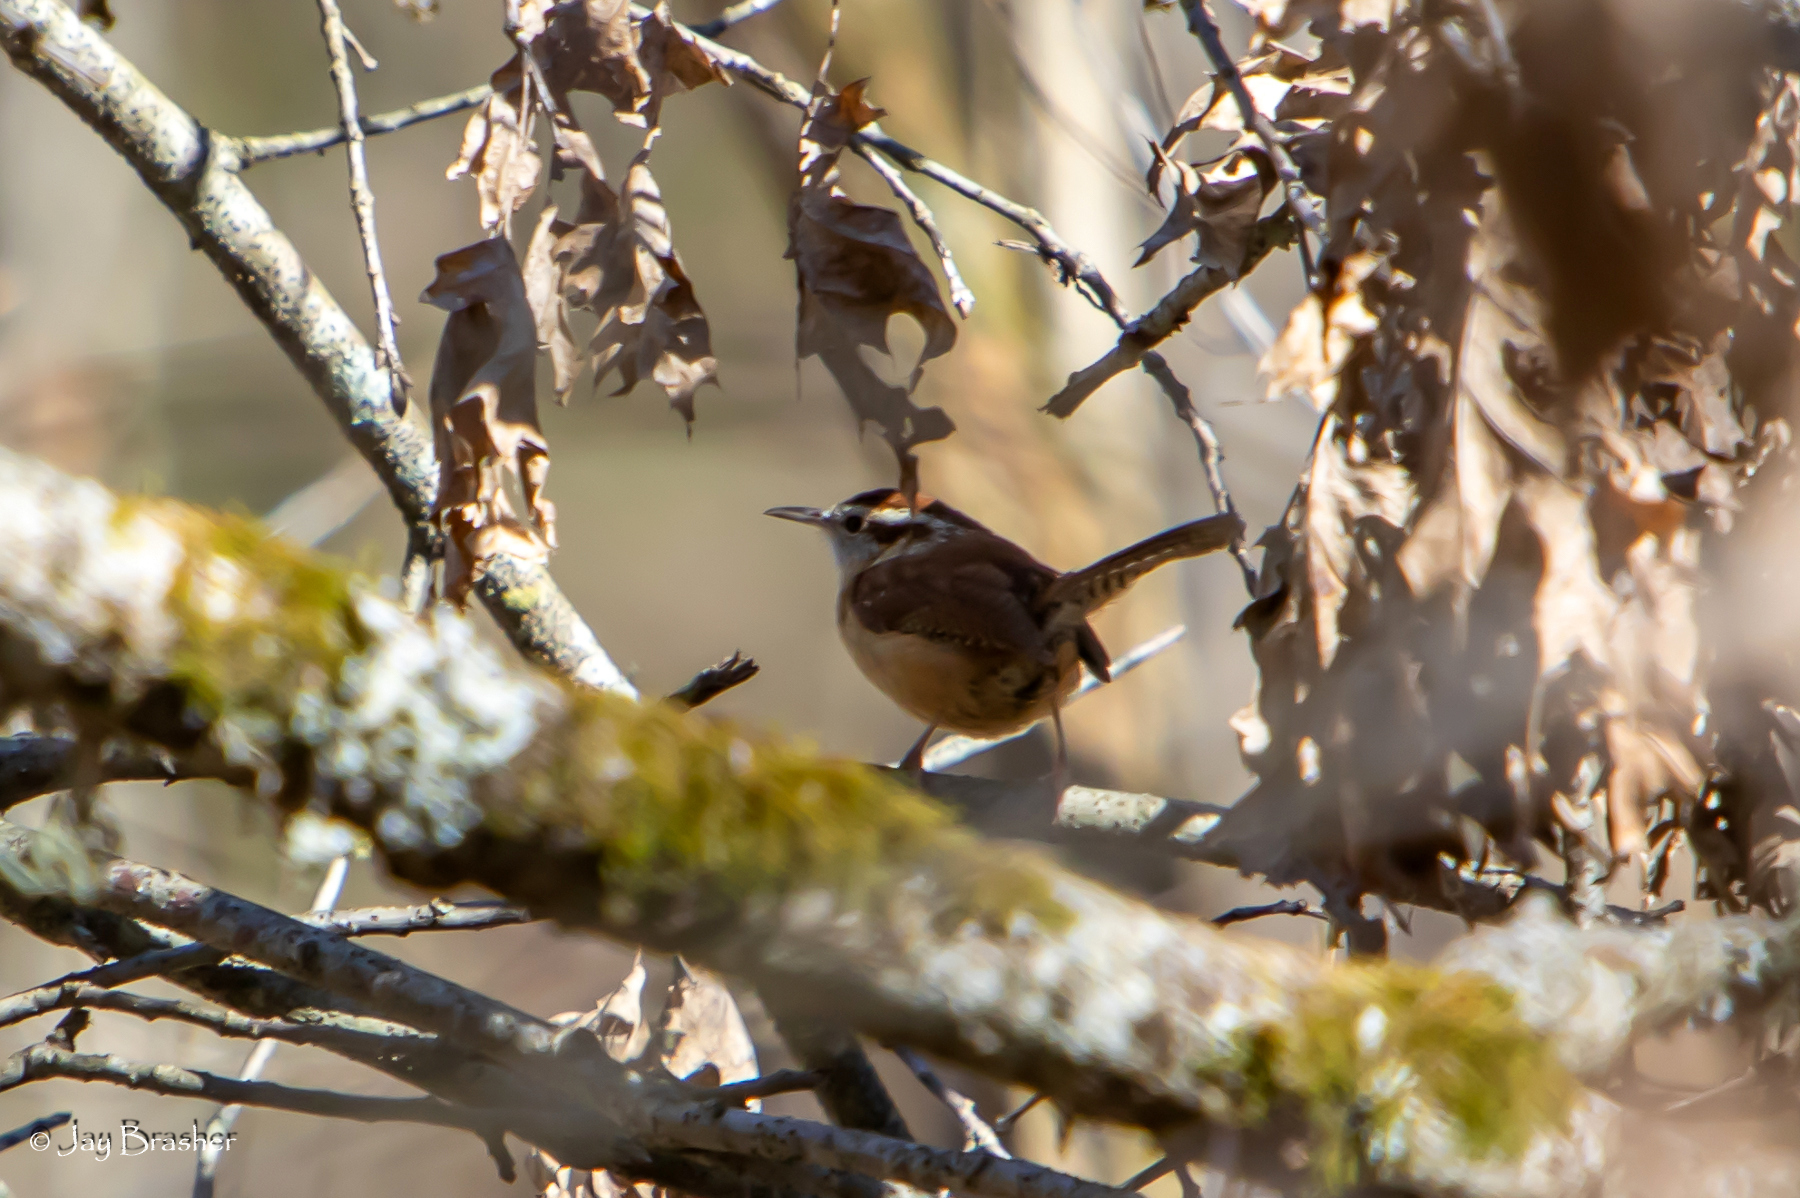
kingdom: Animalia
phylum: Chordata
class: Aves
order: Passeriformes
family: Troglodytidae
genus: Thryothorus
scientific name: Thryothorus ludovicianus
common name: Carolina wren
